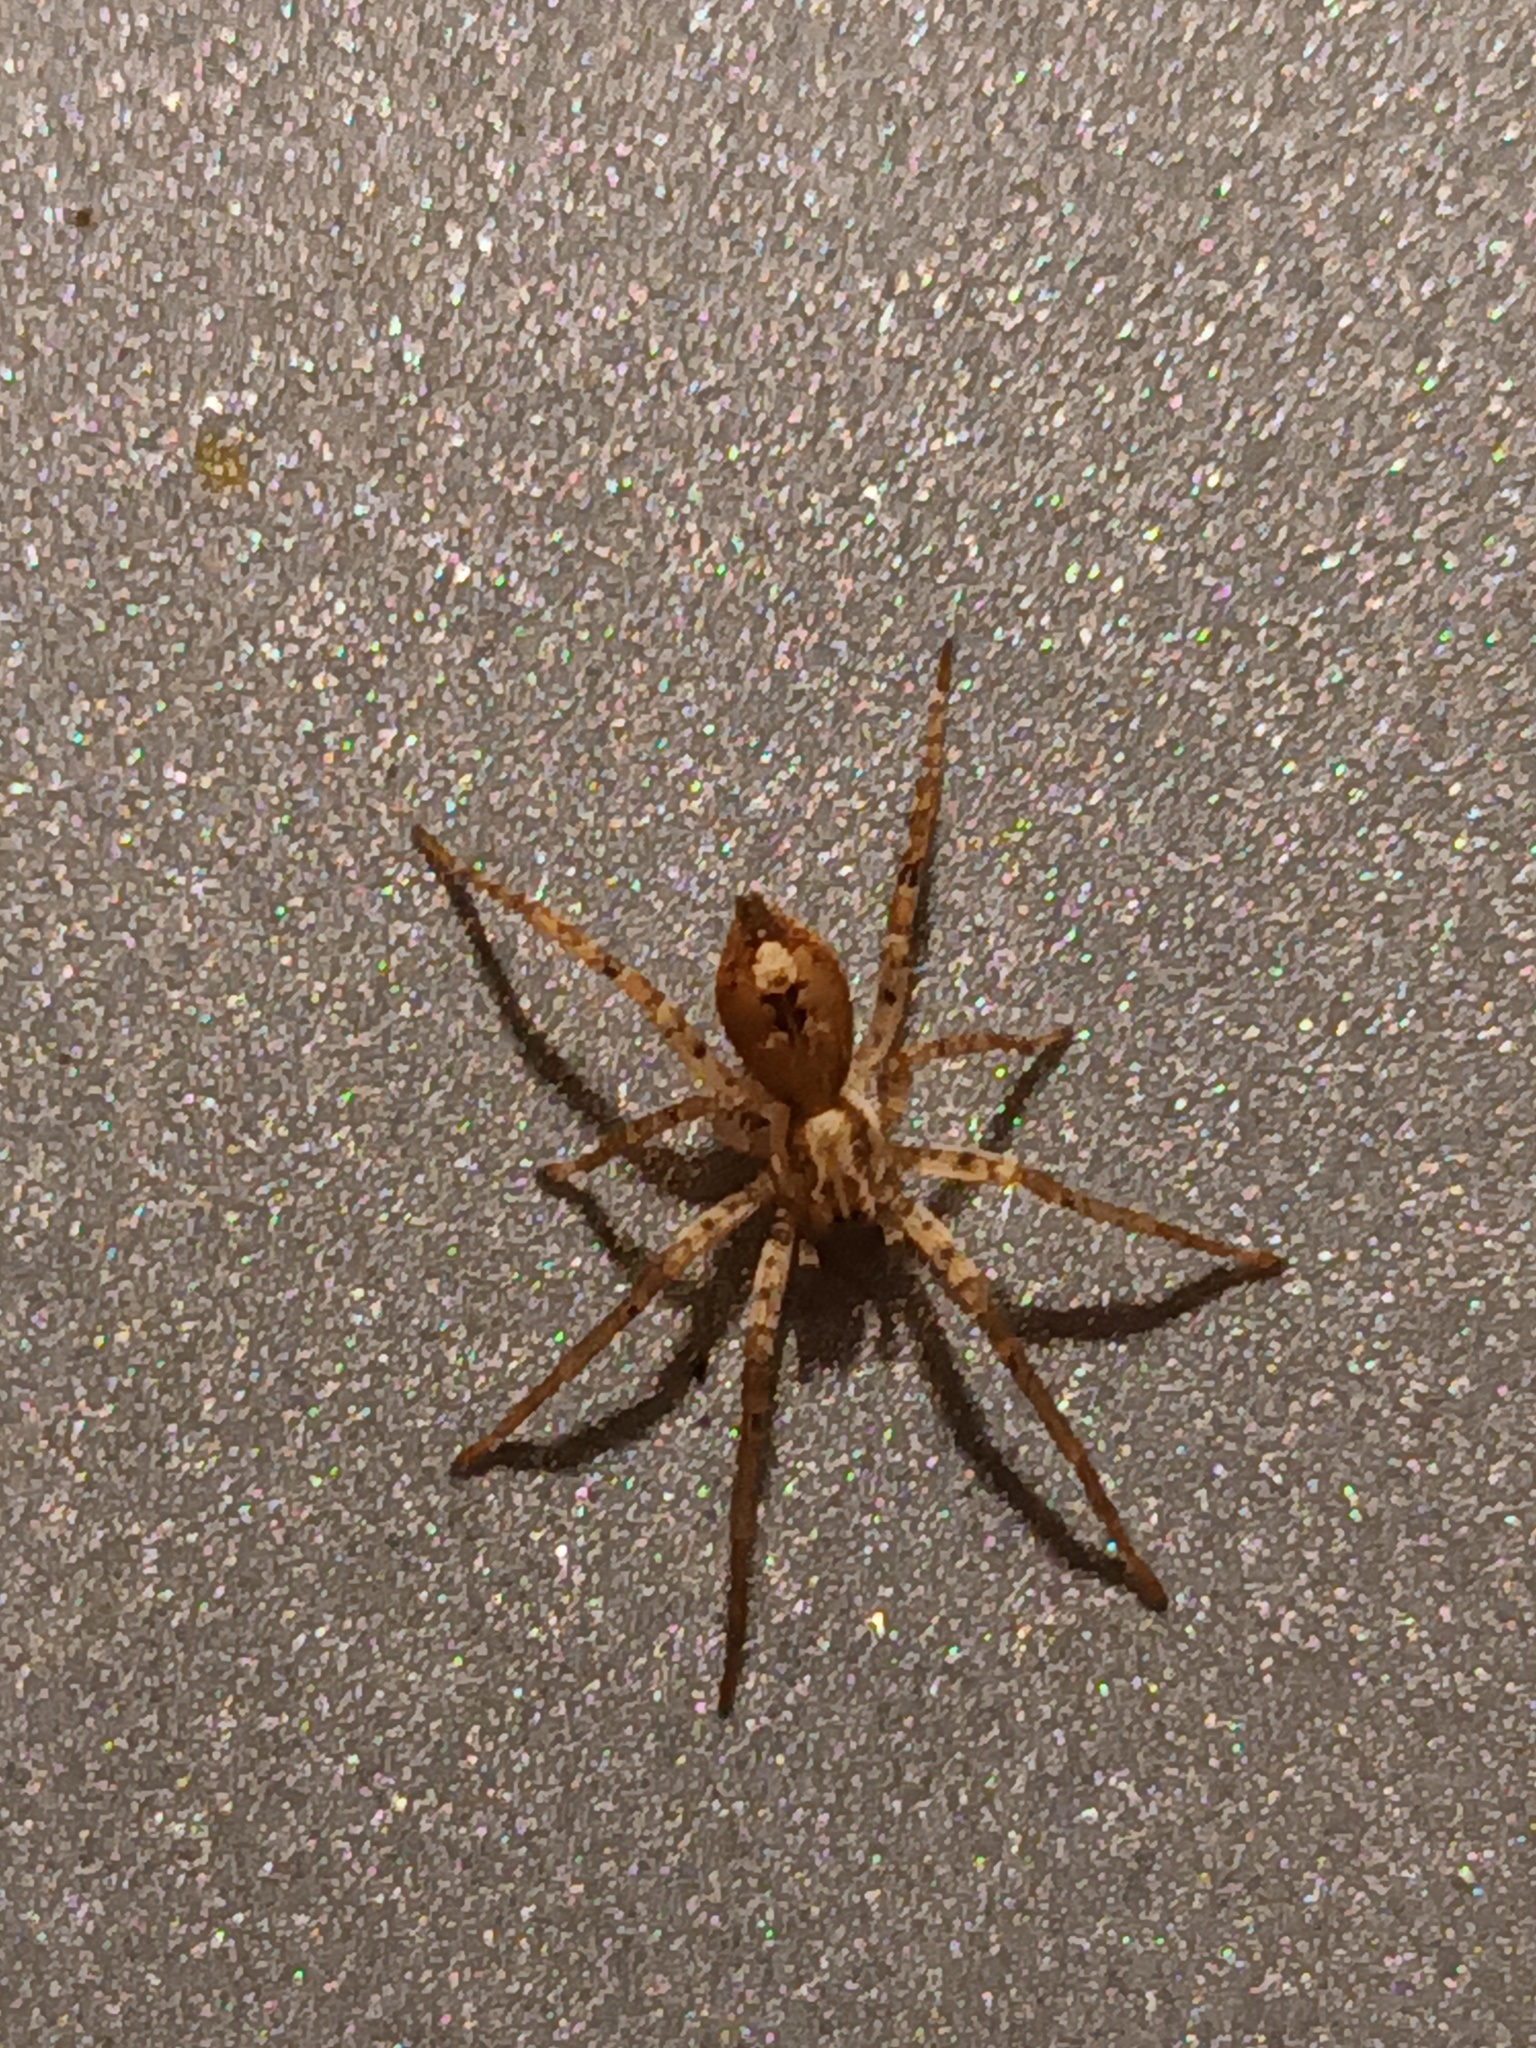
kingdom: Animalia
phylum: Arthropoda
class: Arachnida
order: Araneae
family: Anyphaenidae
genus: Anyphaena
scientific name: Anyphaena accentuata
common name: Buzzing spider
